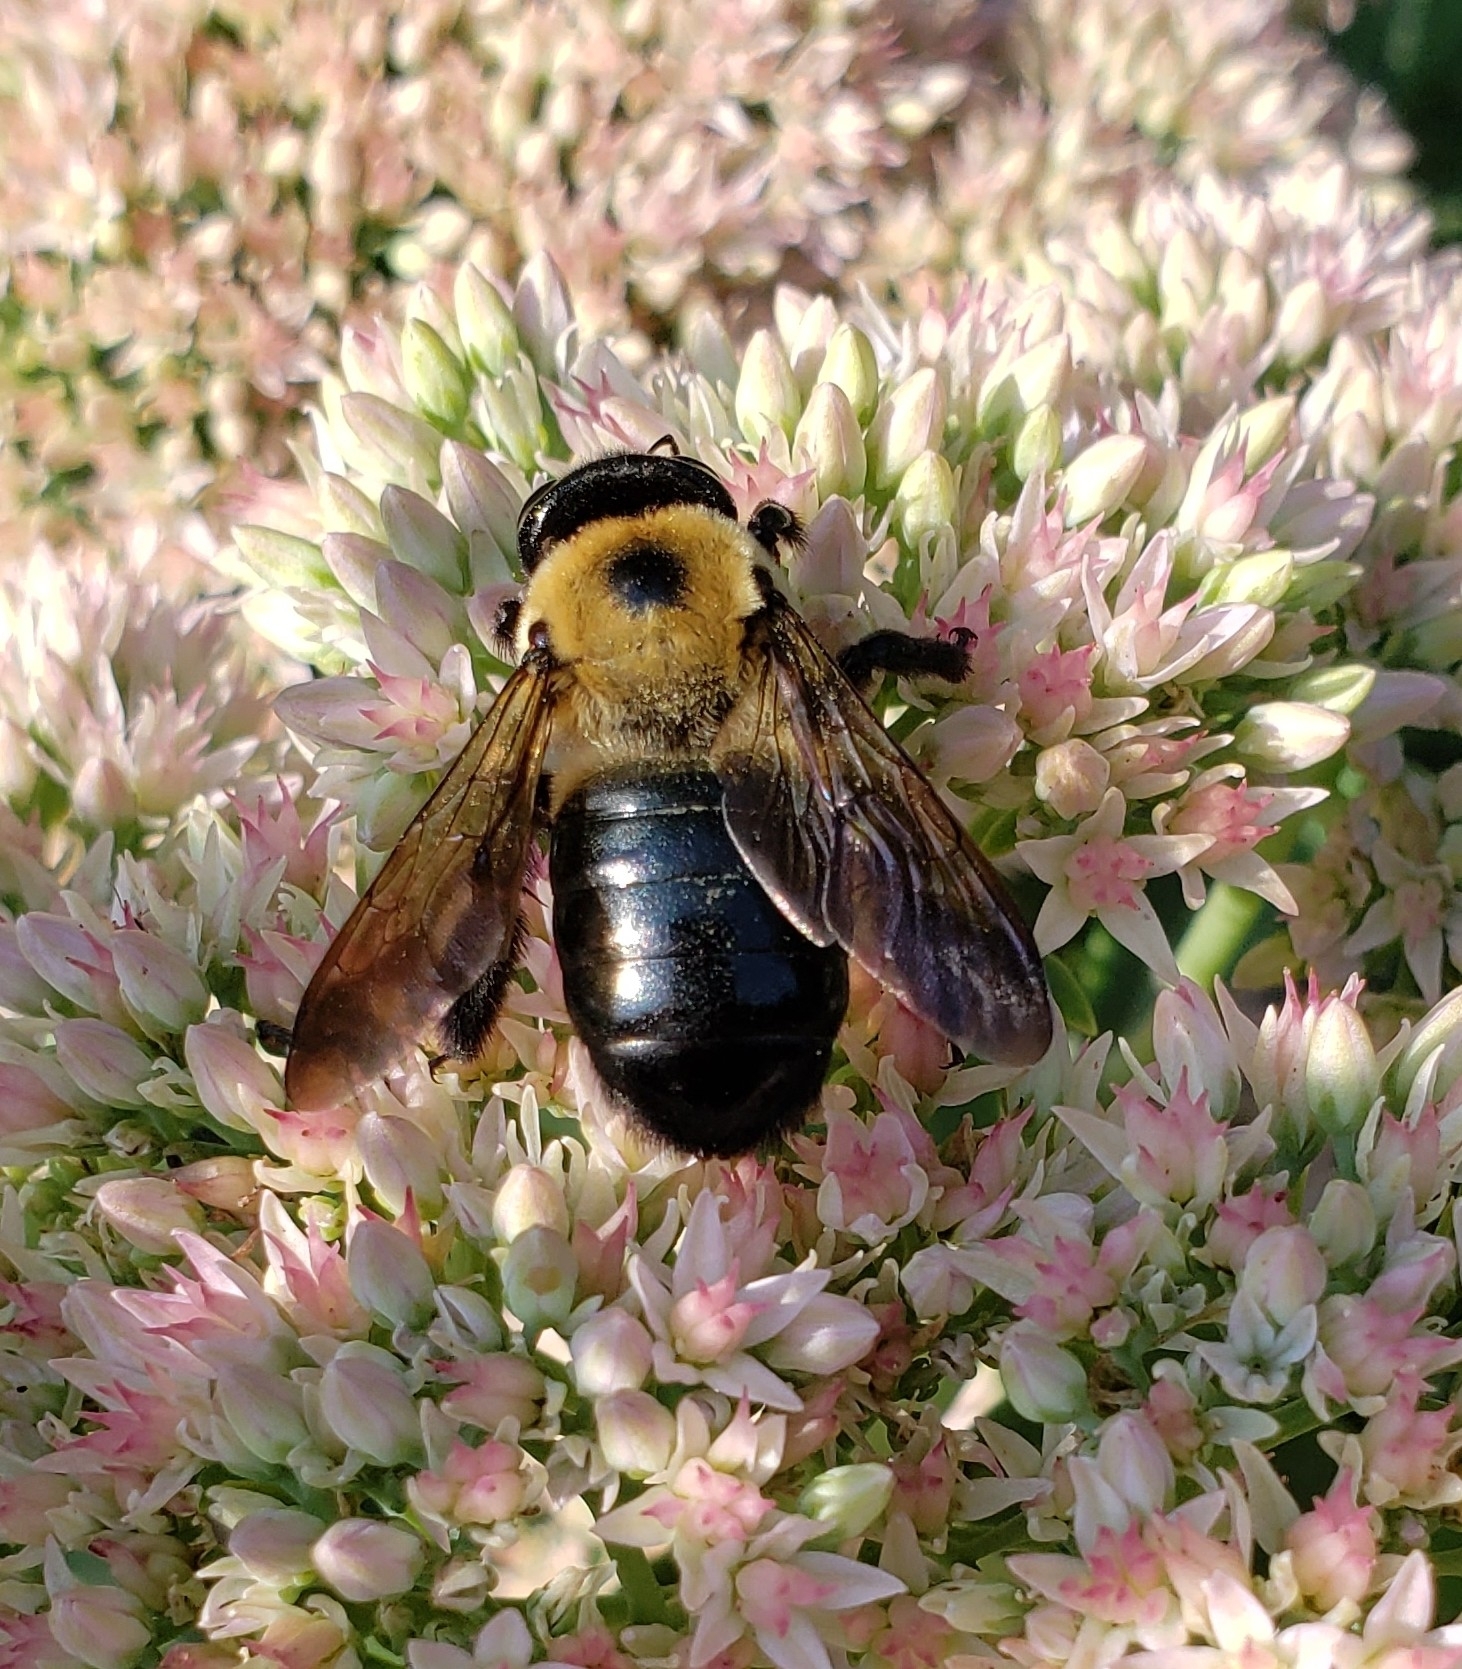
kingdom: Animalia
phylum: Arthropoda
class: Insecta
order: Hymenoptera
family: Apidae
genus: Xylocopa
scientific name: Xylocopa virginica
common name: Carpenter bee
